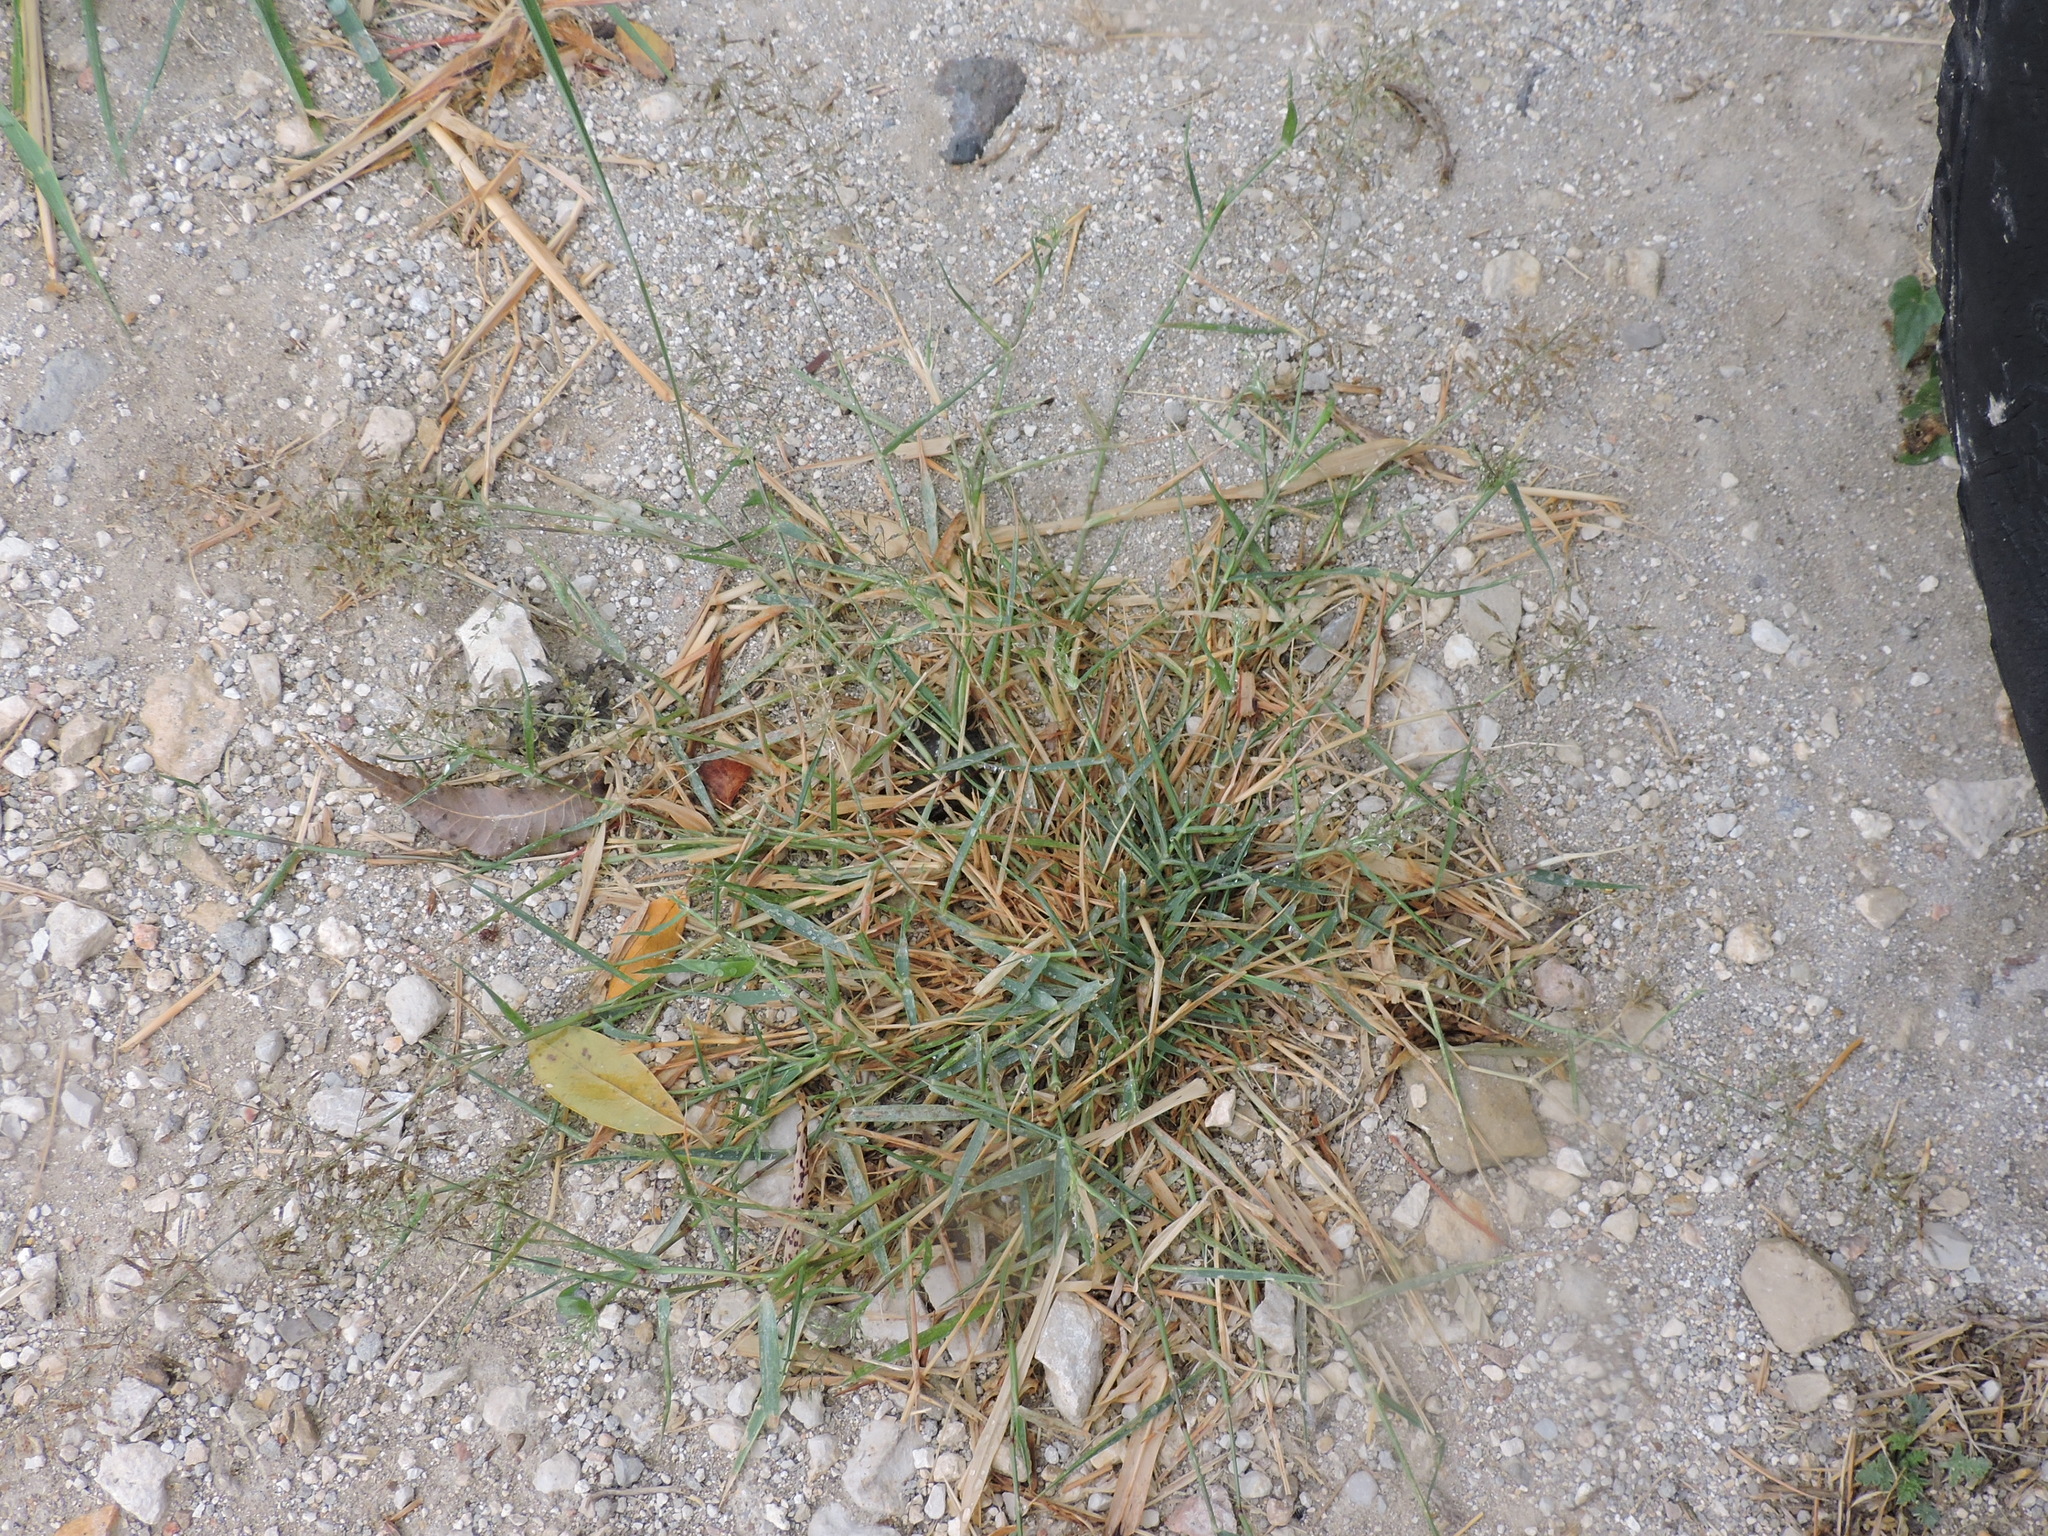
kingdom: Plantae
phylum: Tracheophyta
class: Liliopsida
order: Poales
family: Poaceae
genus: Eragrostis
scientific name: Eragrostis barrelieri
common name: Mediterranean lovegrass
